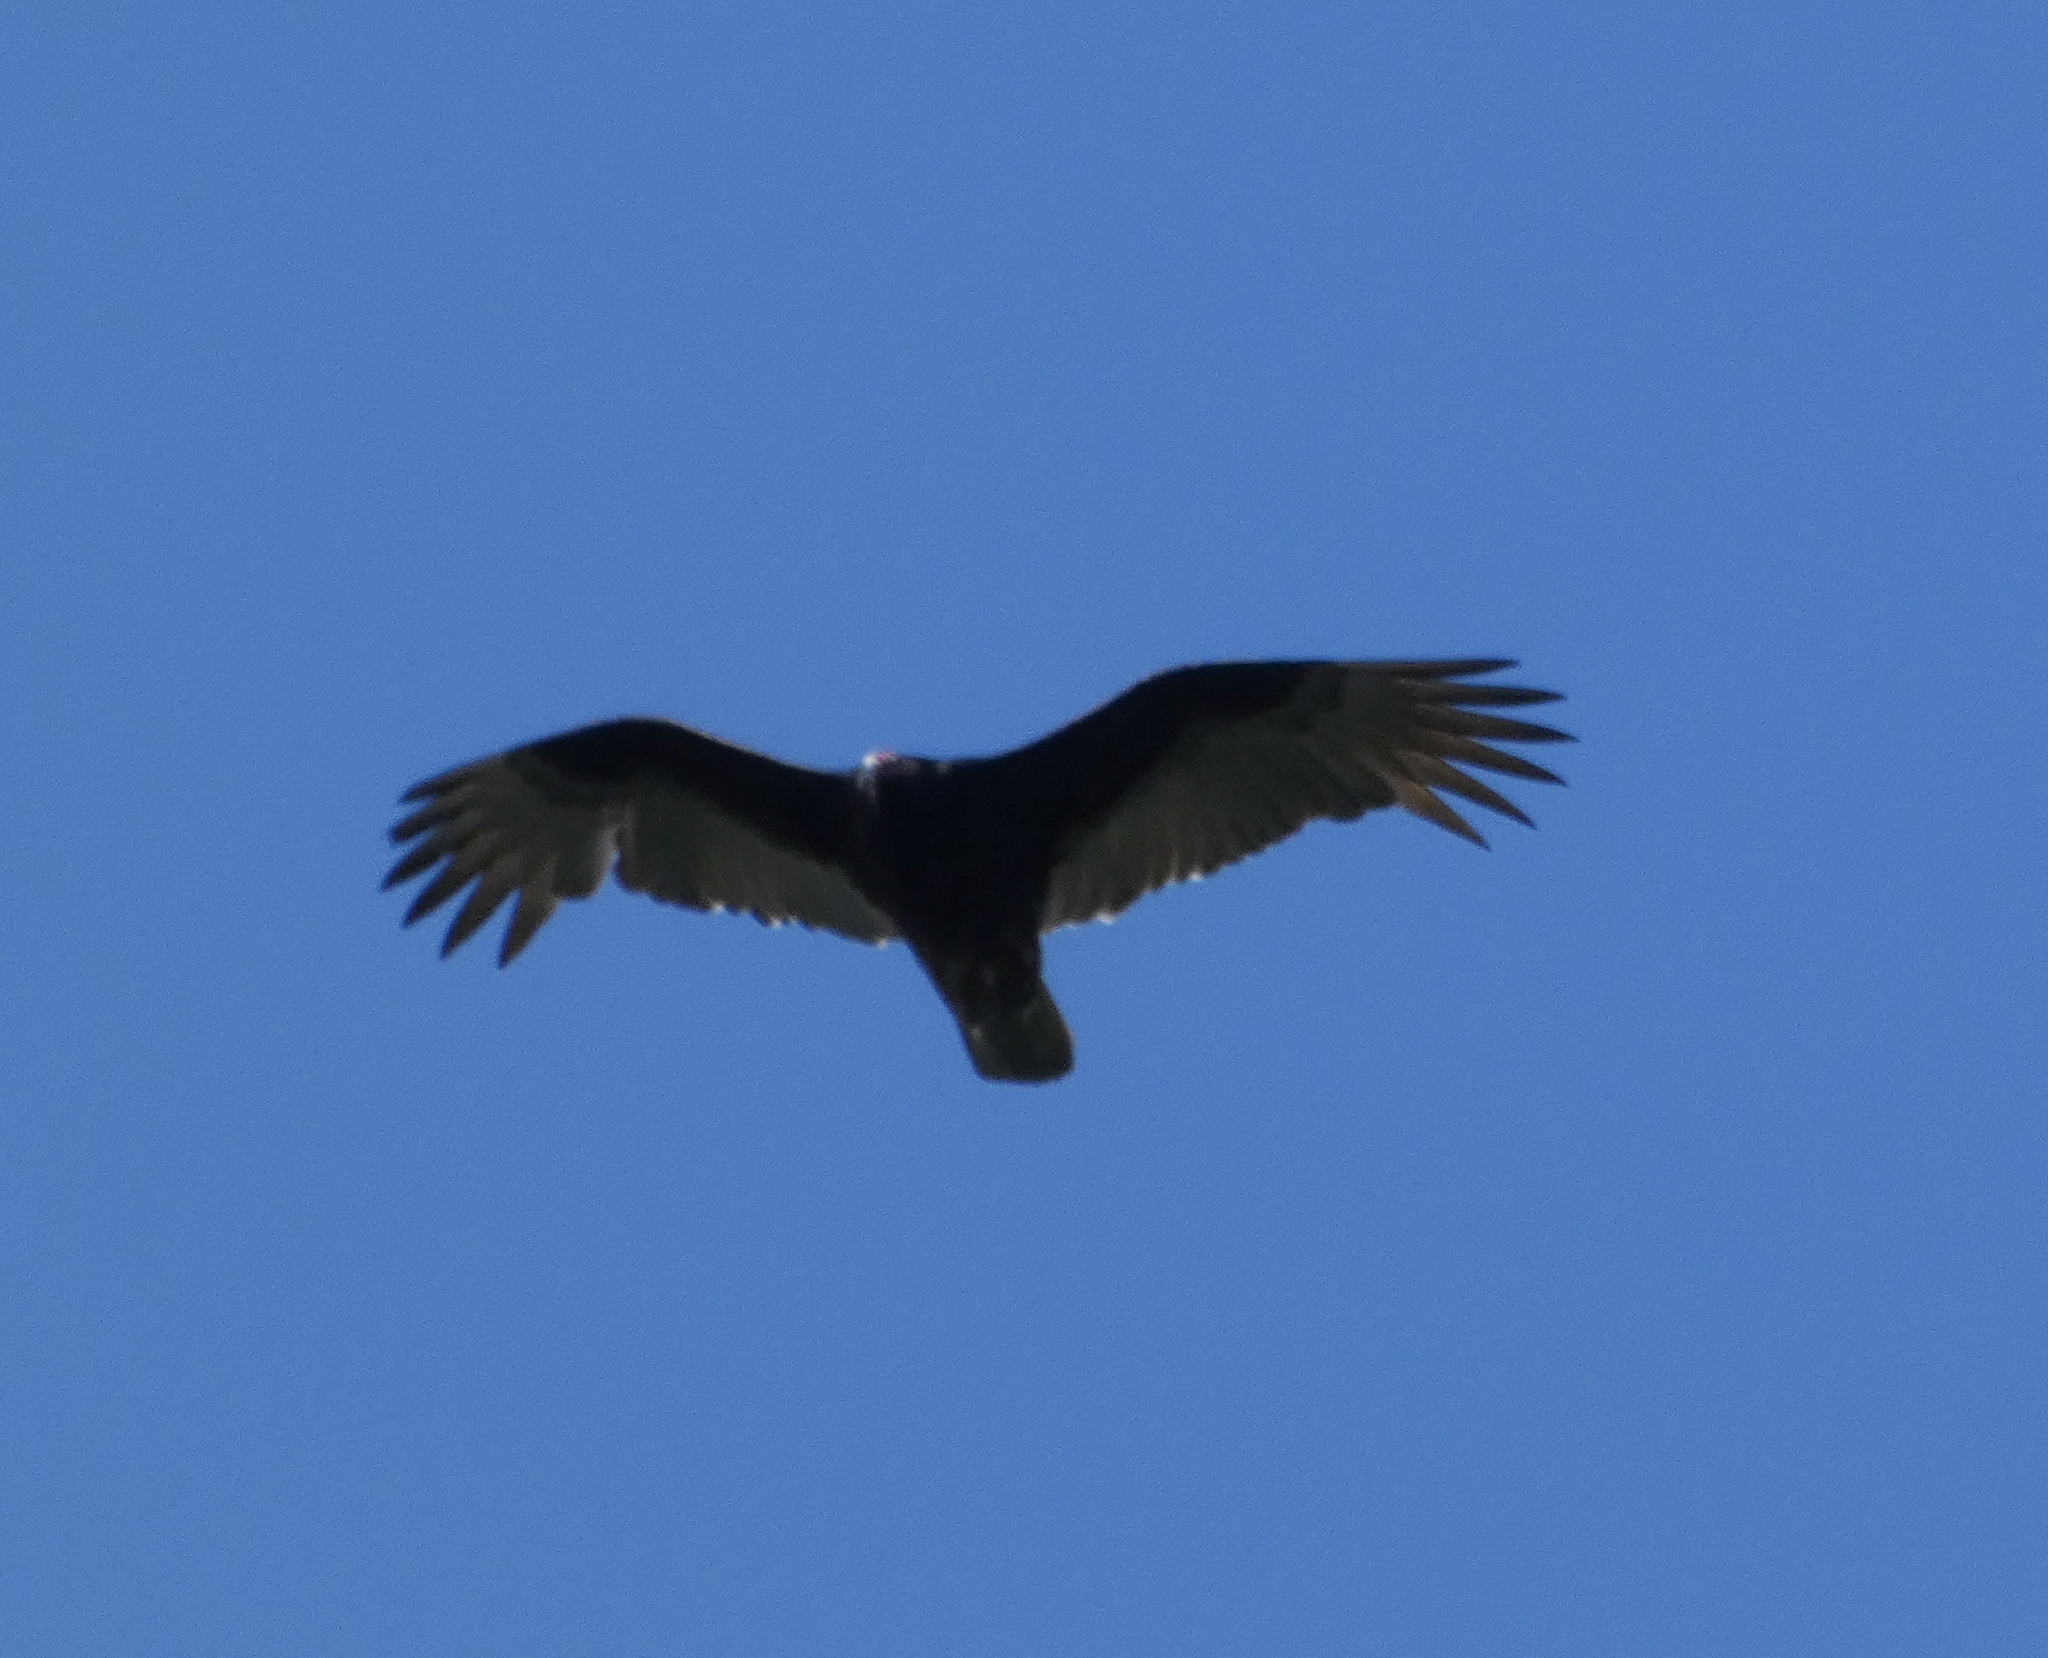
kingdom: Animalia
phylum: Chordata
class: Aves
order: Accipitriformes
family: Cathartidae
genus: Cathartes
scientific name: Cathartes aura
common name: Turkey vulture
